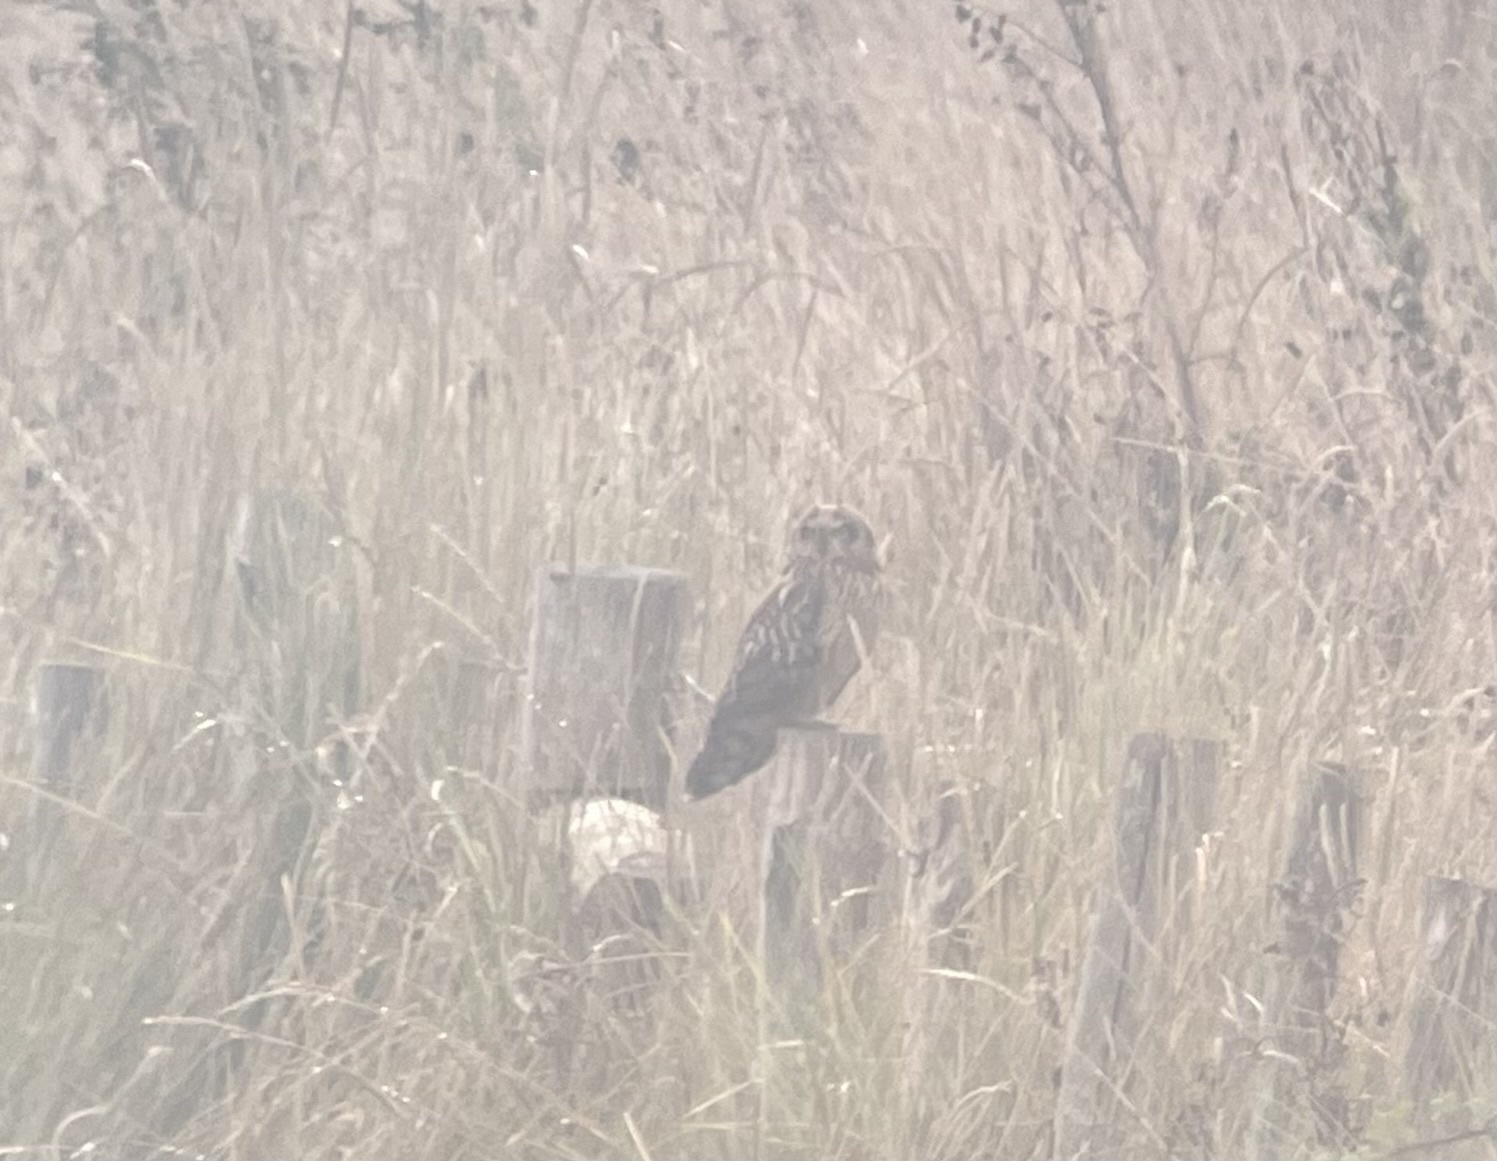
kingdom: Animalia
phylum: Chordata
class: Aves
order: Strigiformes
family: Strigidae
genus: Asio
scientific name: Asio flammeus
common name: Short-eared owl
